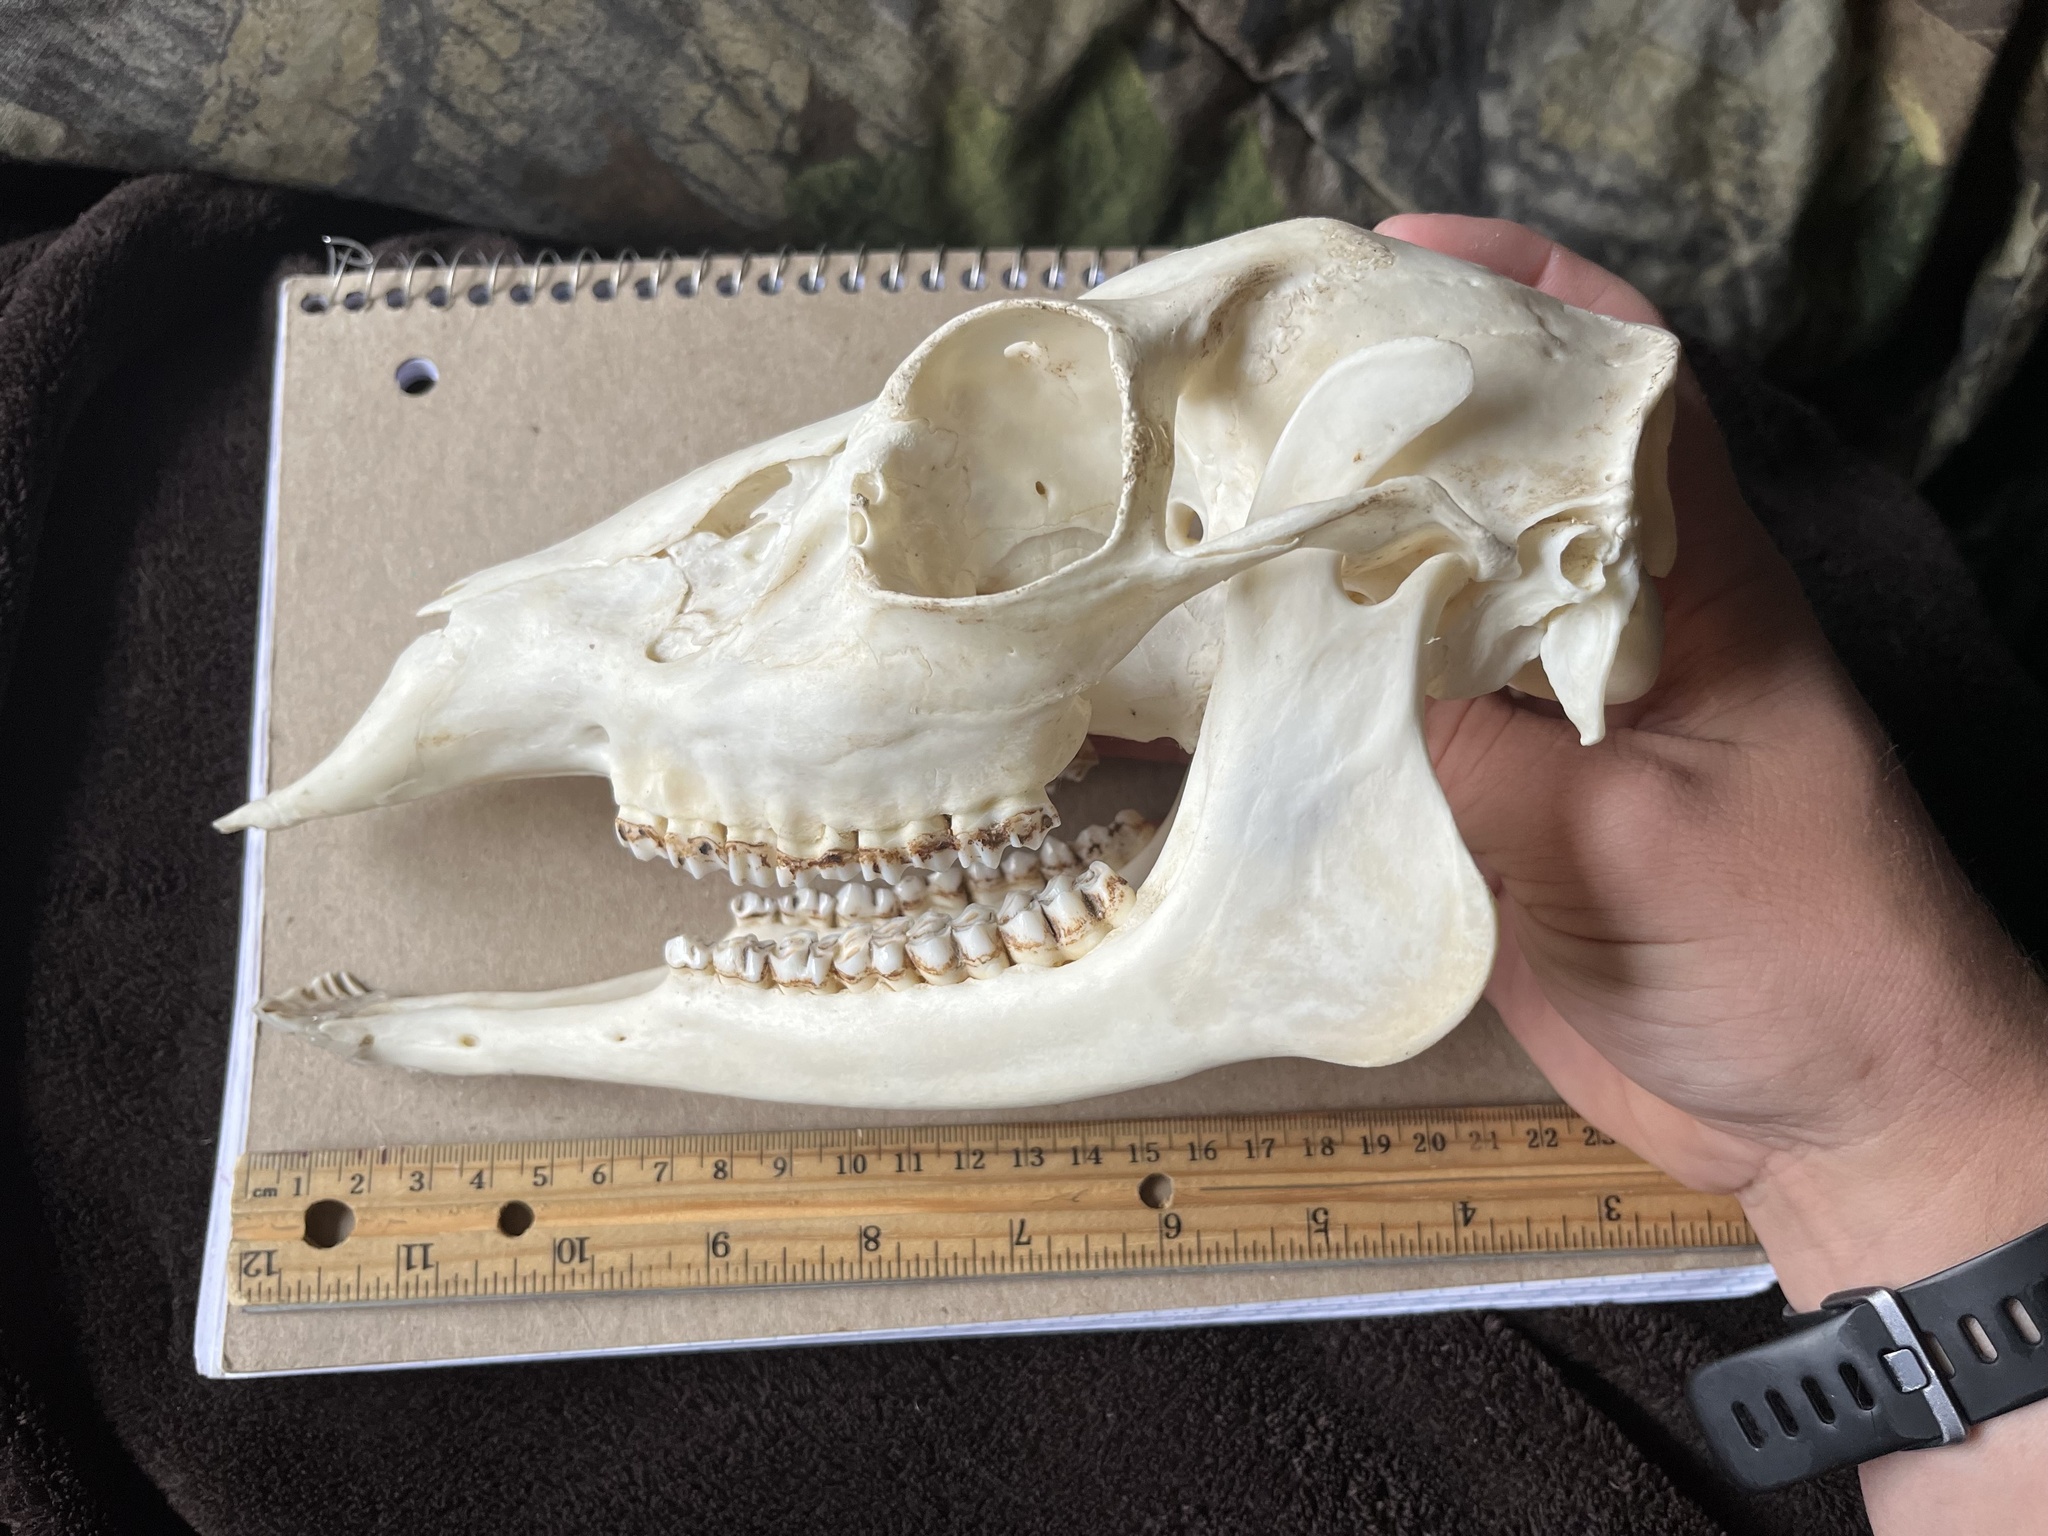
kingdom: Animalia
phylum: Chordata
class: Mammalia
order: Artiodactyla
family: Cervidae
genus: Odocoileus
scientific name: Odocoileus virginianus
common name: White-tailed deer
